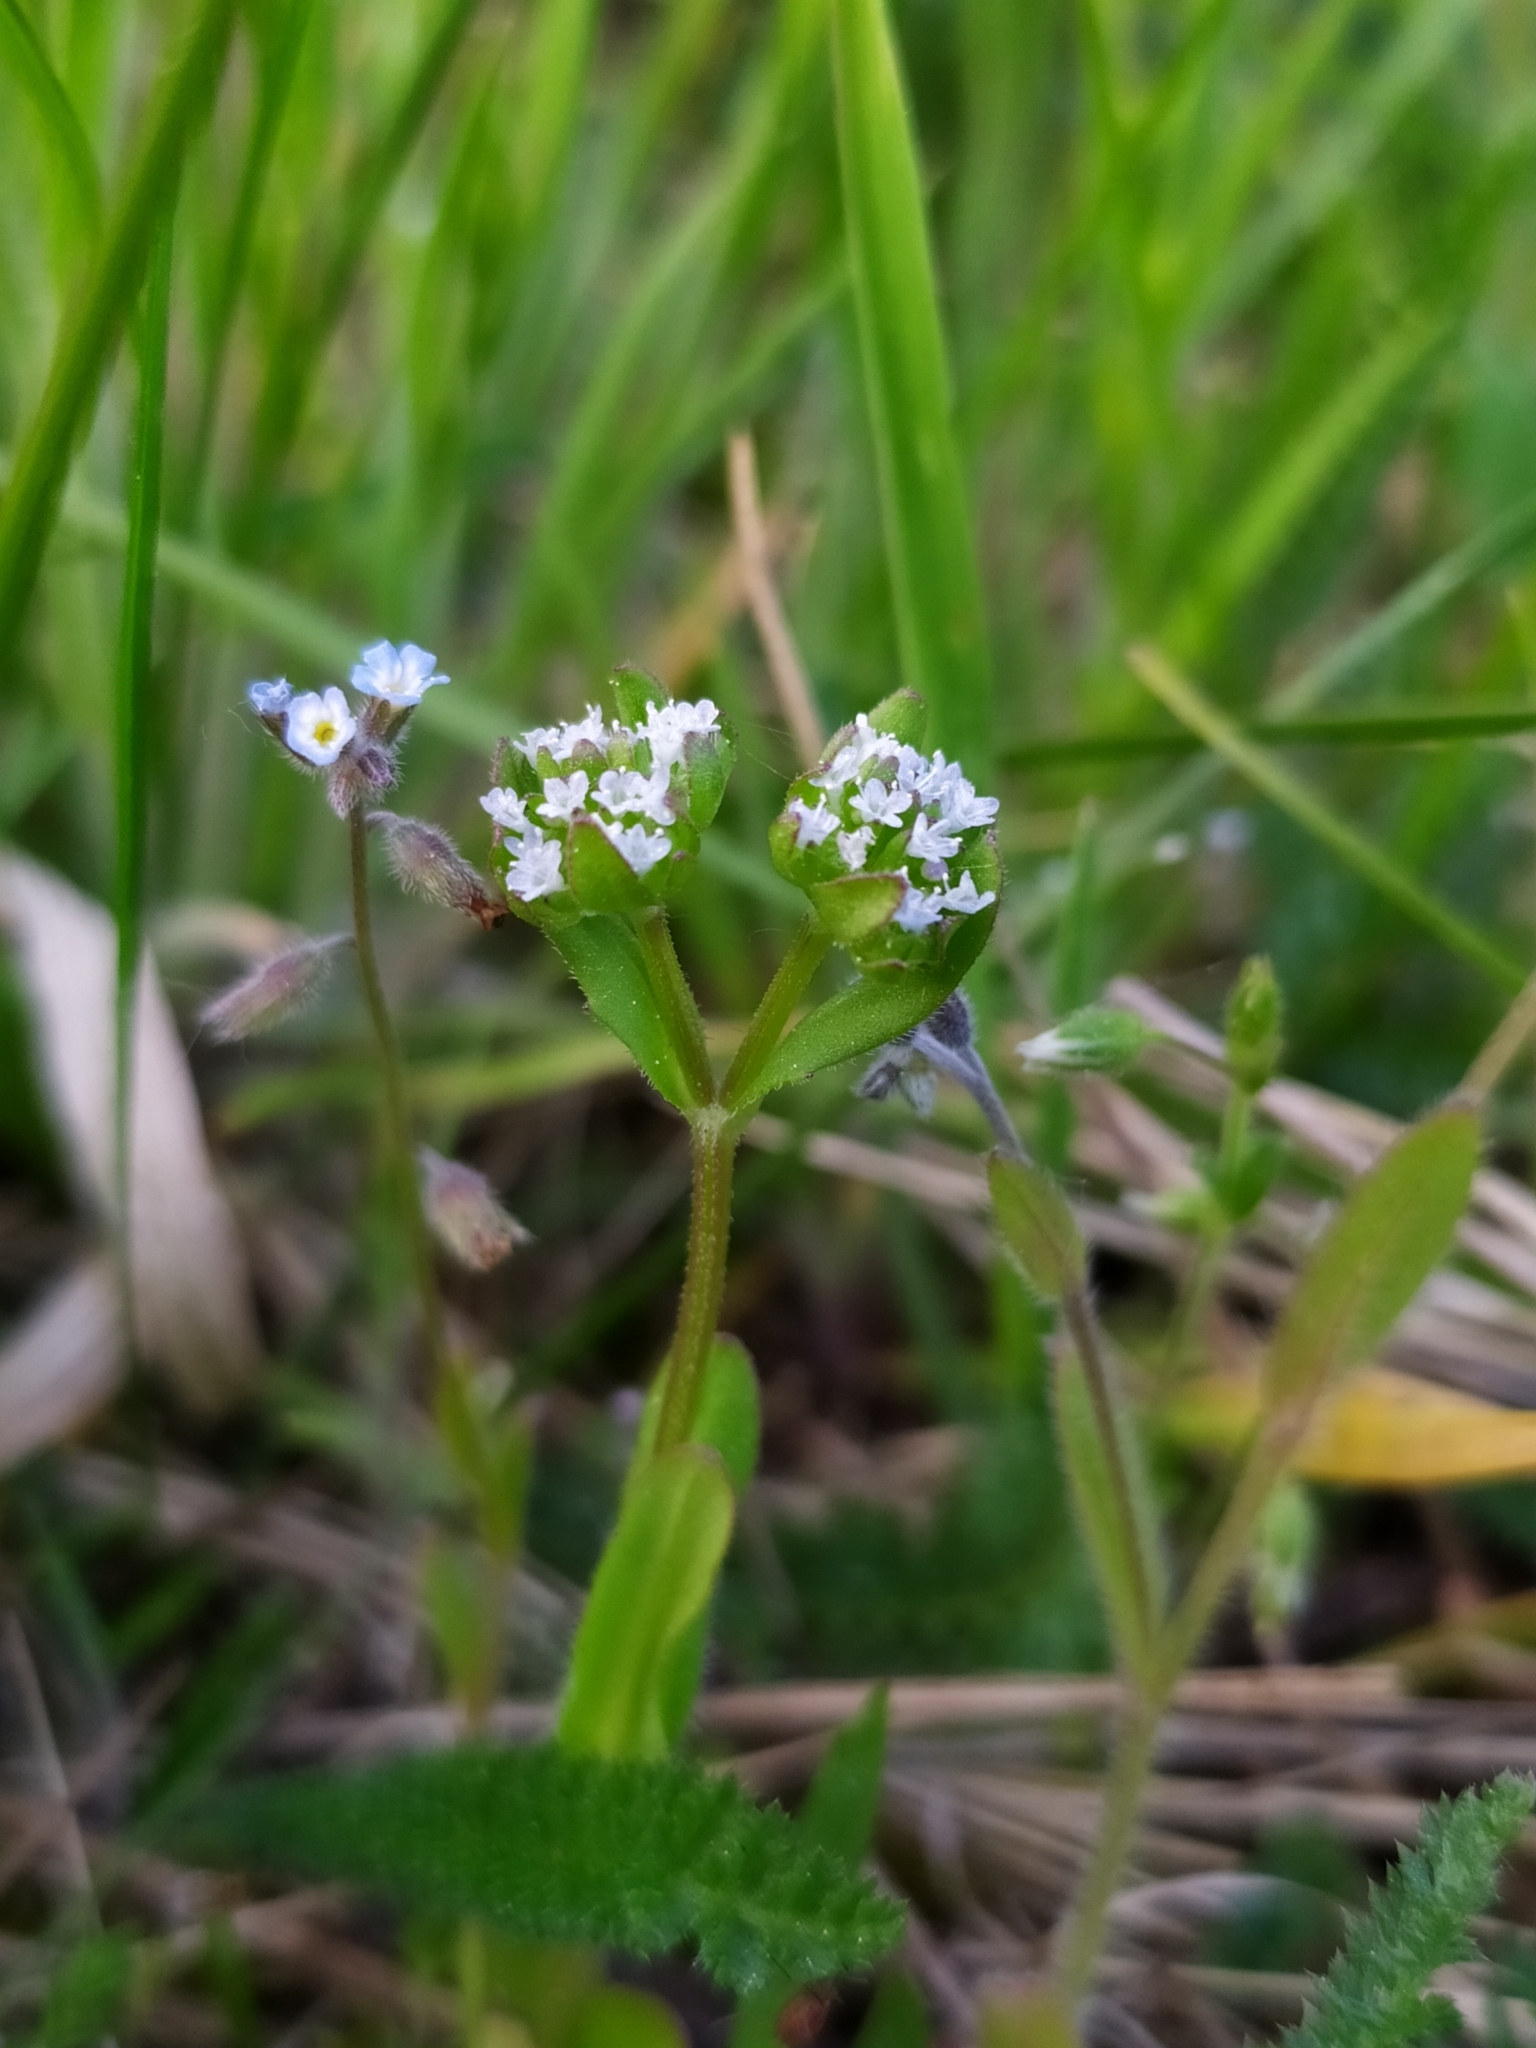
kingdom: Plantae
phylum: Tracheophyta
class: Magnoliopsida
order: Dipsacales
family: Caprifoliaceae
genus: Valerianella
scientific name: Valerianella
